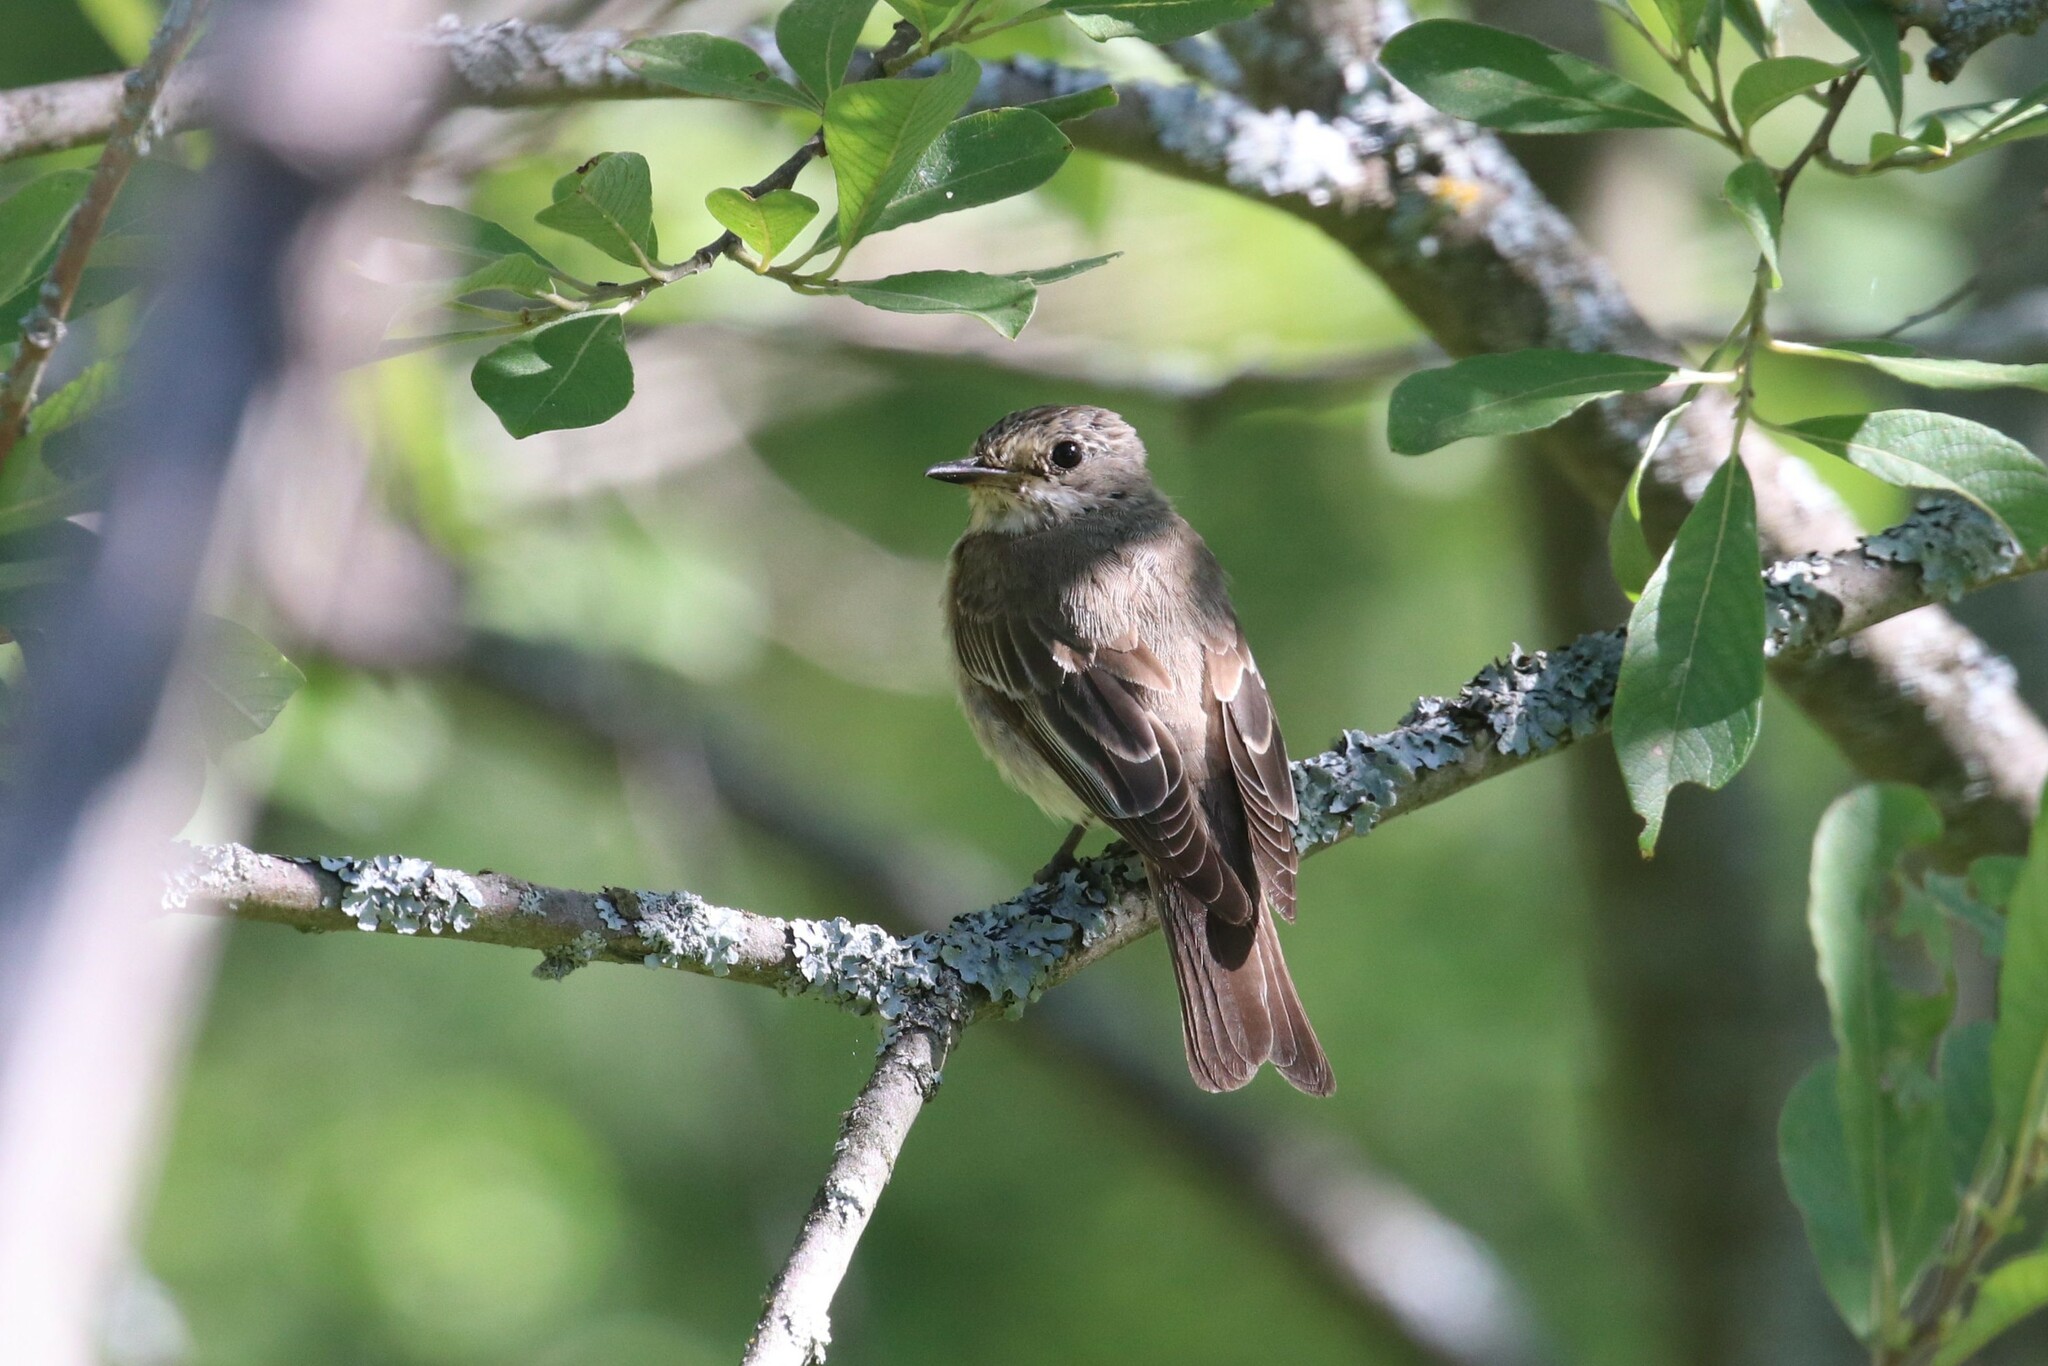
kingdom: Animalia
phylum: Chordata
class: Aves
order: Passeriformes
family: Muscicapidae
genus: Muscicapa
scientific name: Muscicapa striata
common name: Spotted flycatcher
